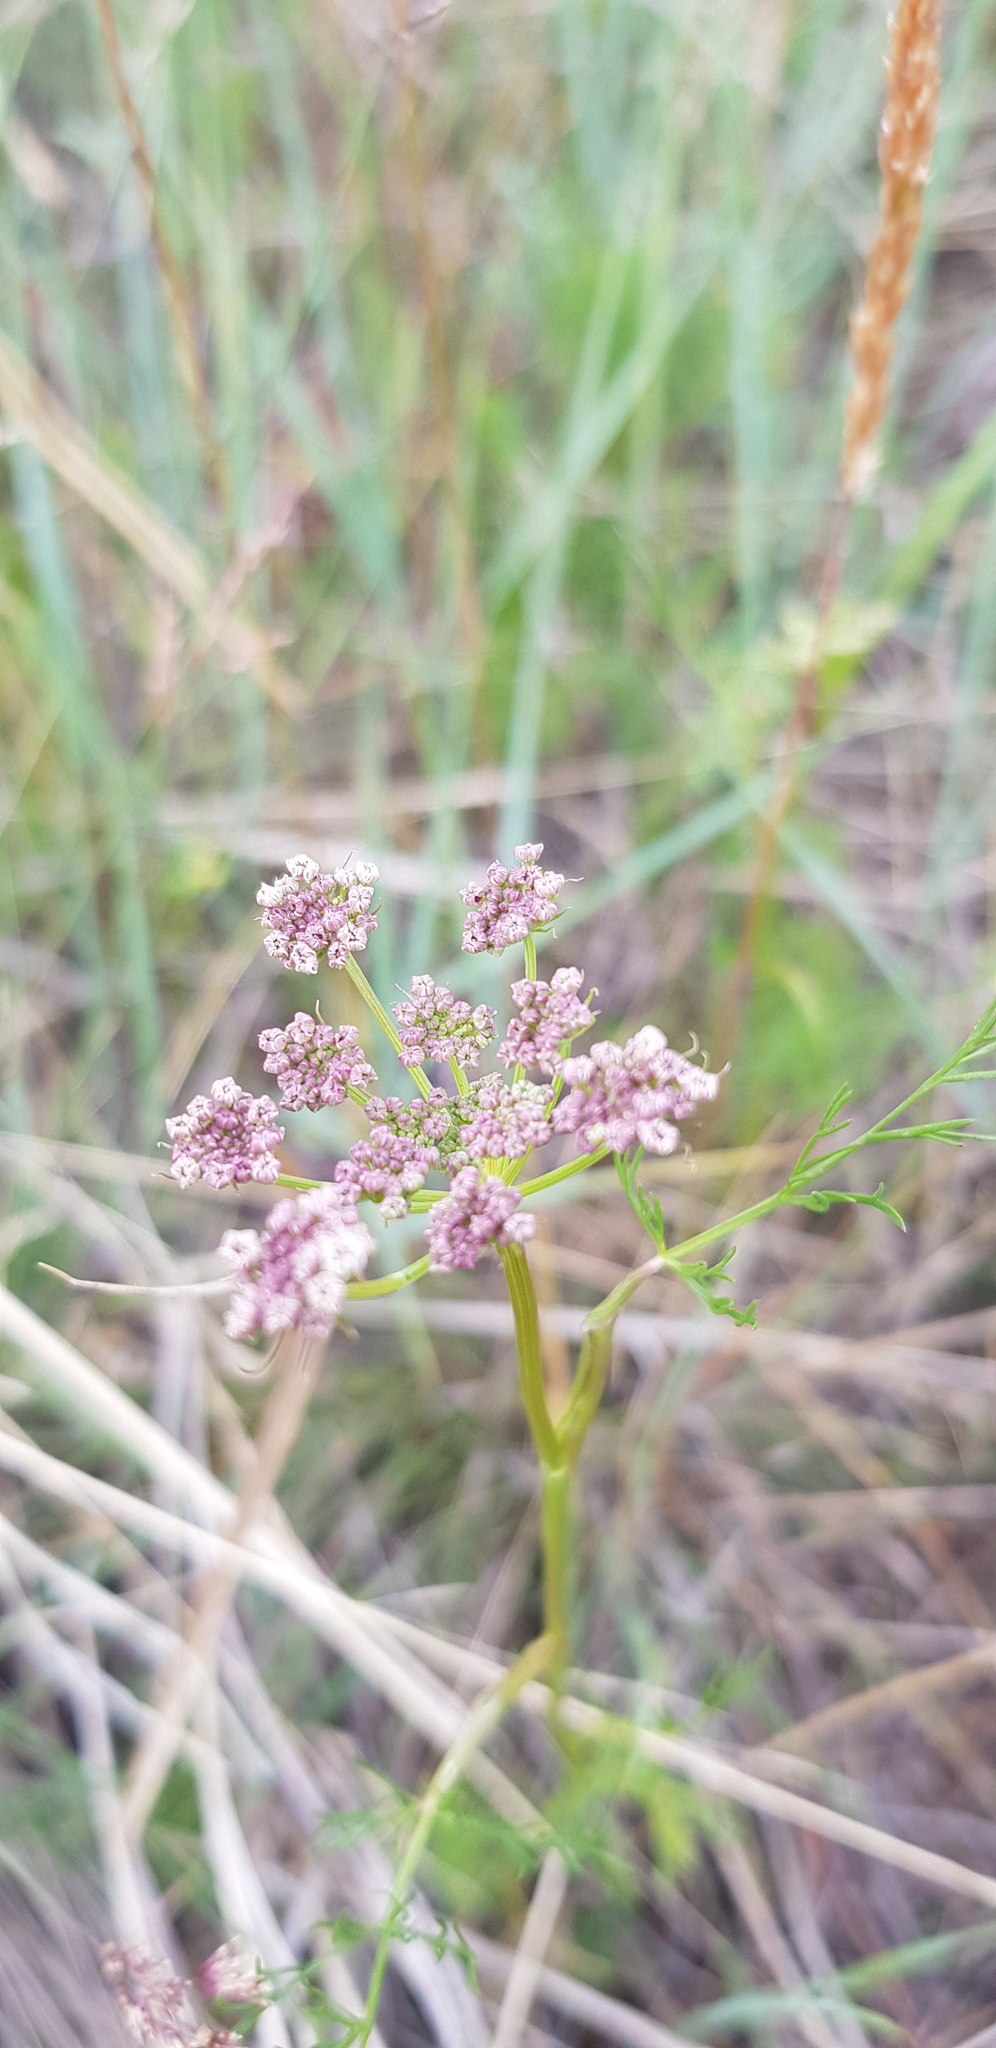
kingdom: Plantae
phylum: Tracheophyta
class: Magnoliopsida
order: Apiales
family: Apiaceae
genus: Carum
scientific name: Carum carvi
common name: Caraway
